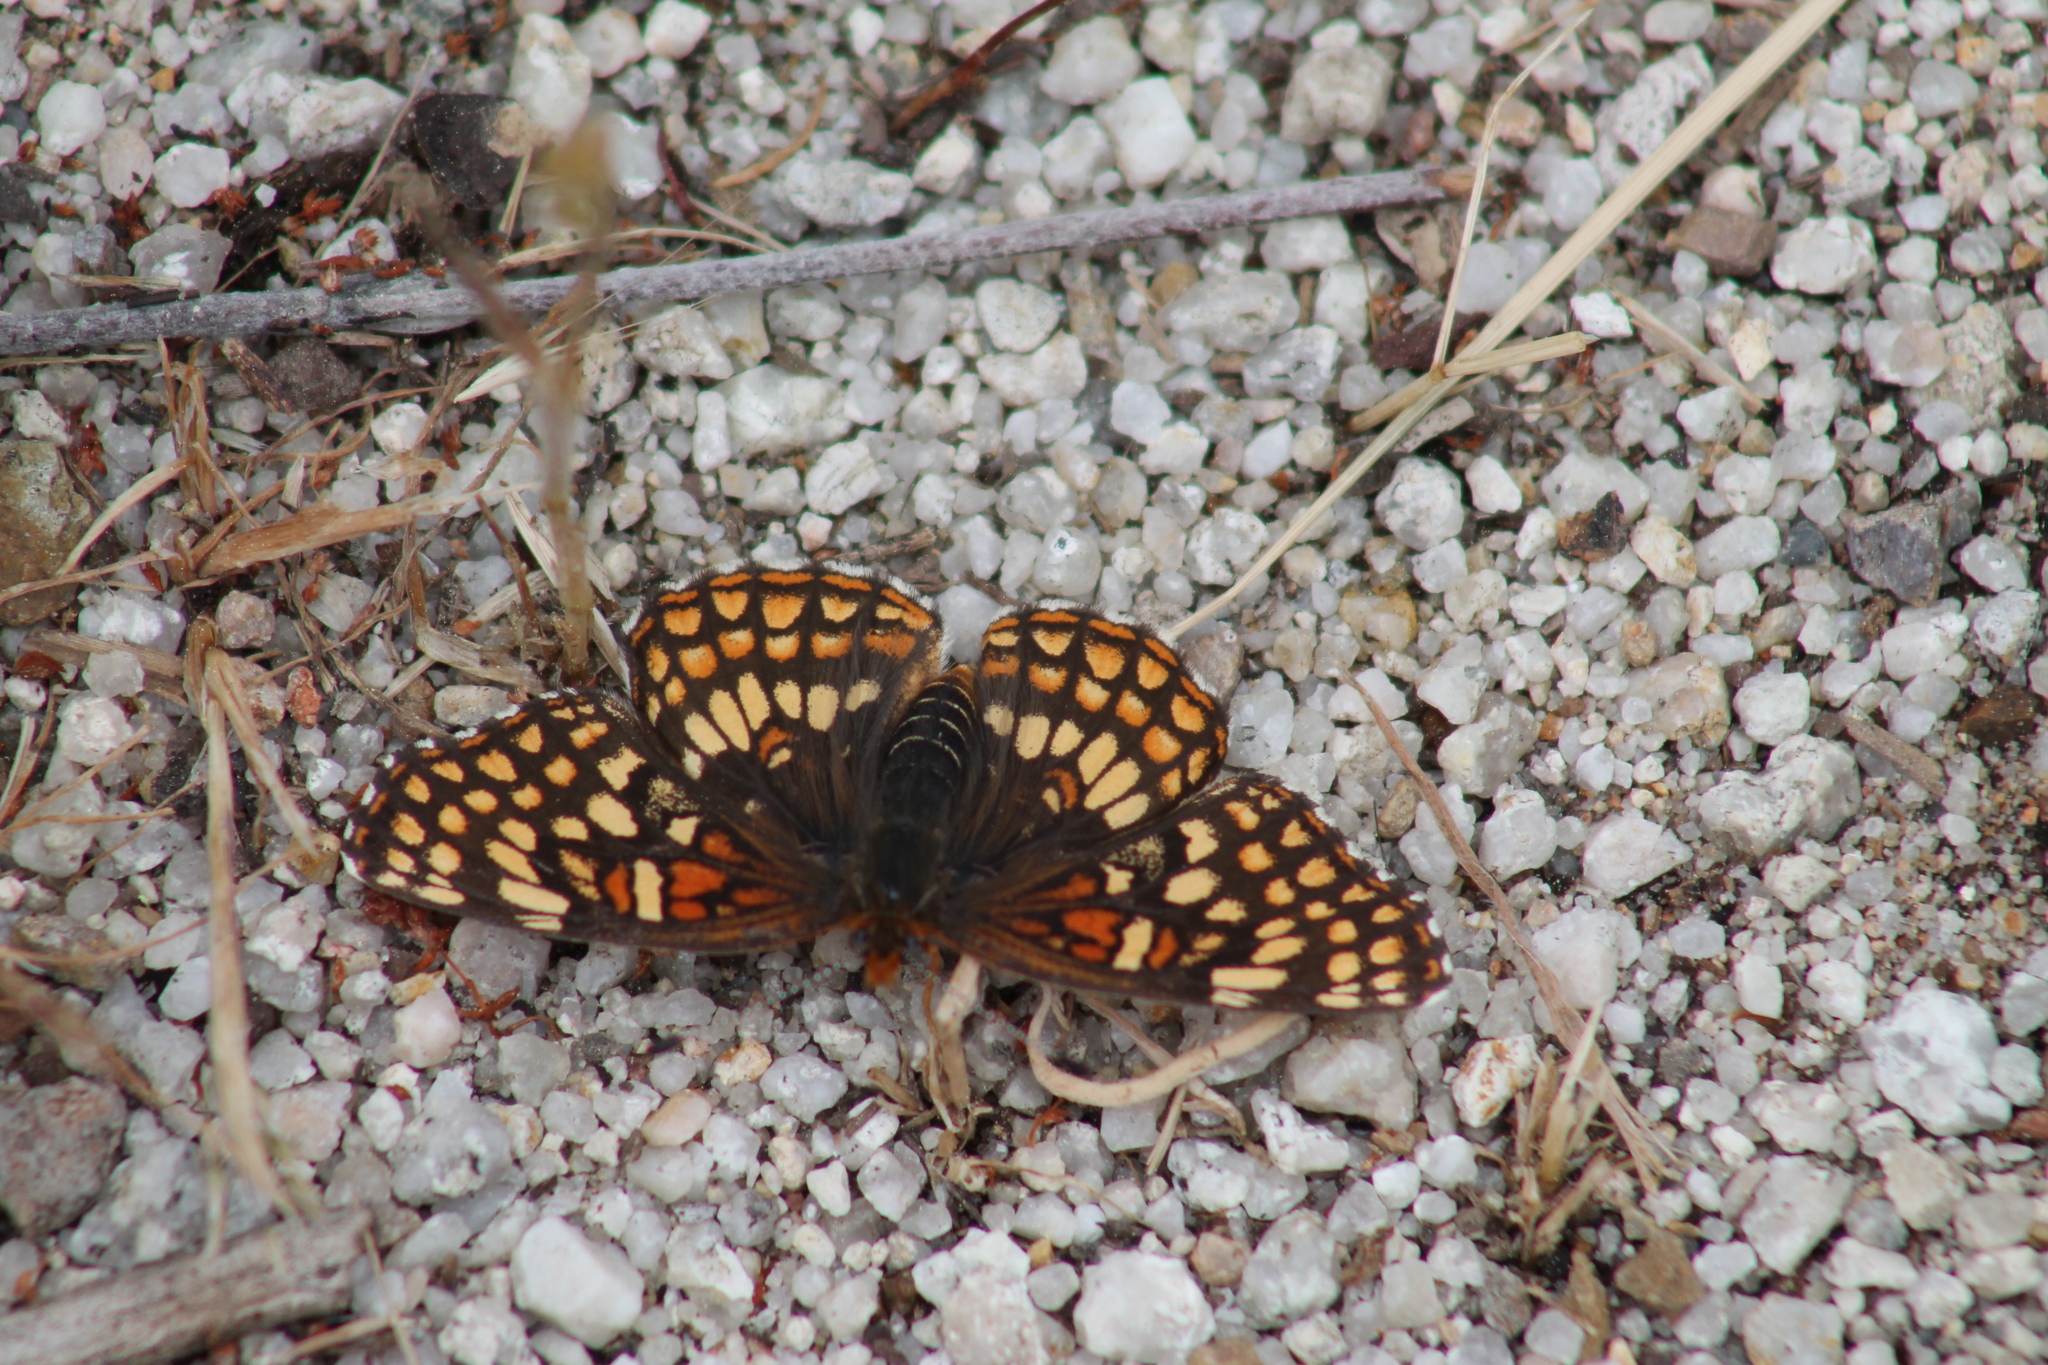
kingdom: Animalia
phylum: Arthropoda
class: Insecta
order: Lepidoptera
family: Nymphalidae
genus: Chlosyne
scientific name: Chlosyne gabbii
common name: Gabb's checkerspot
